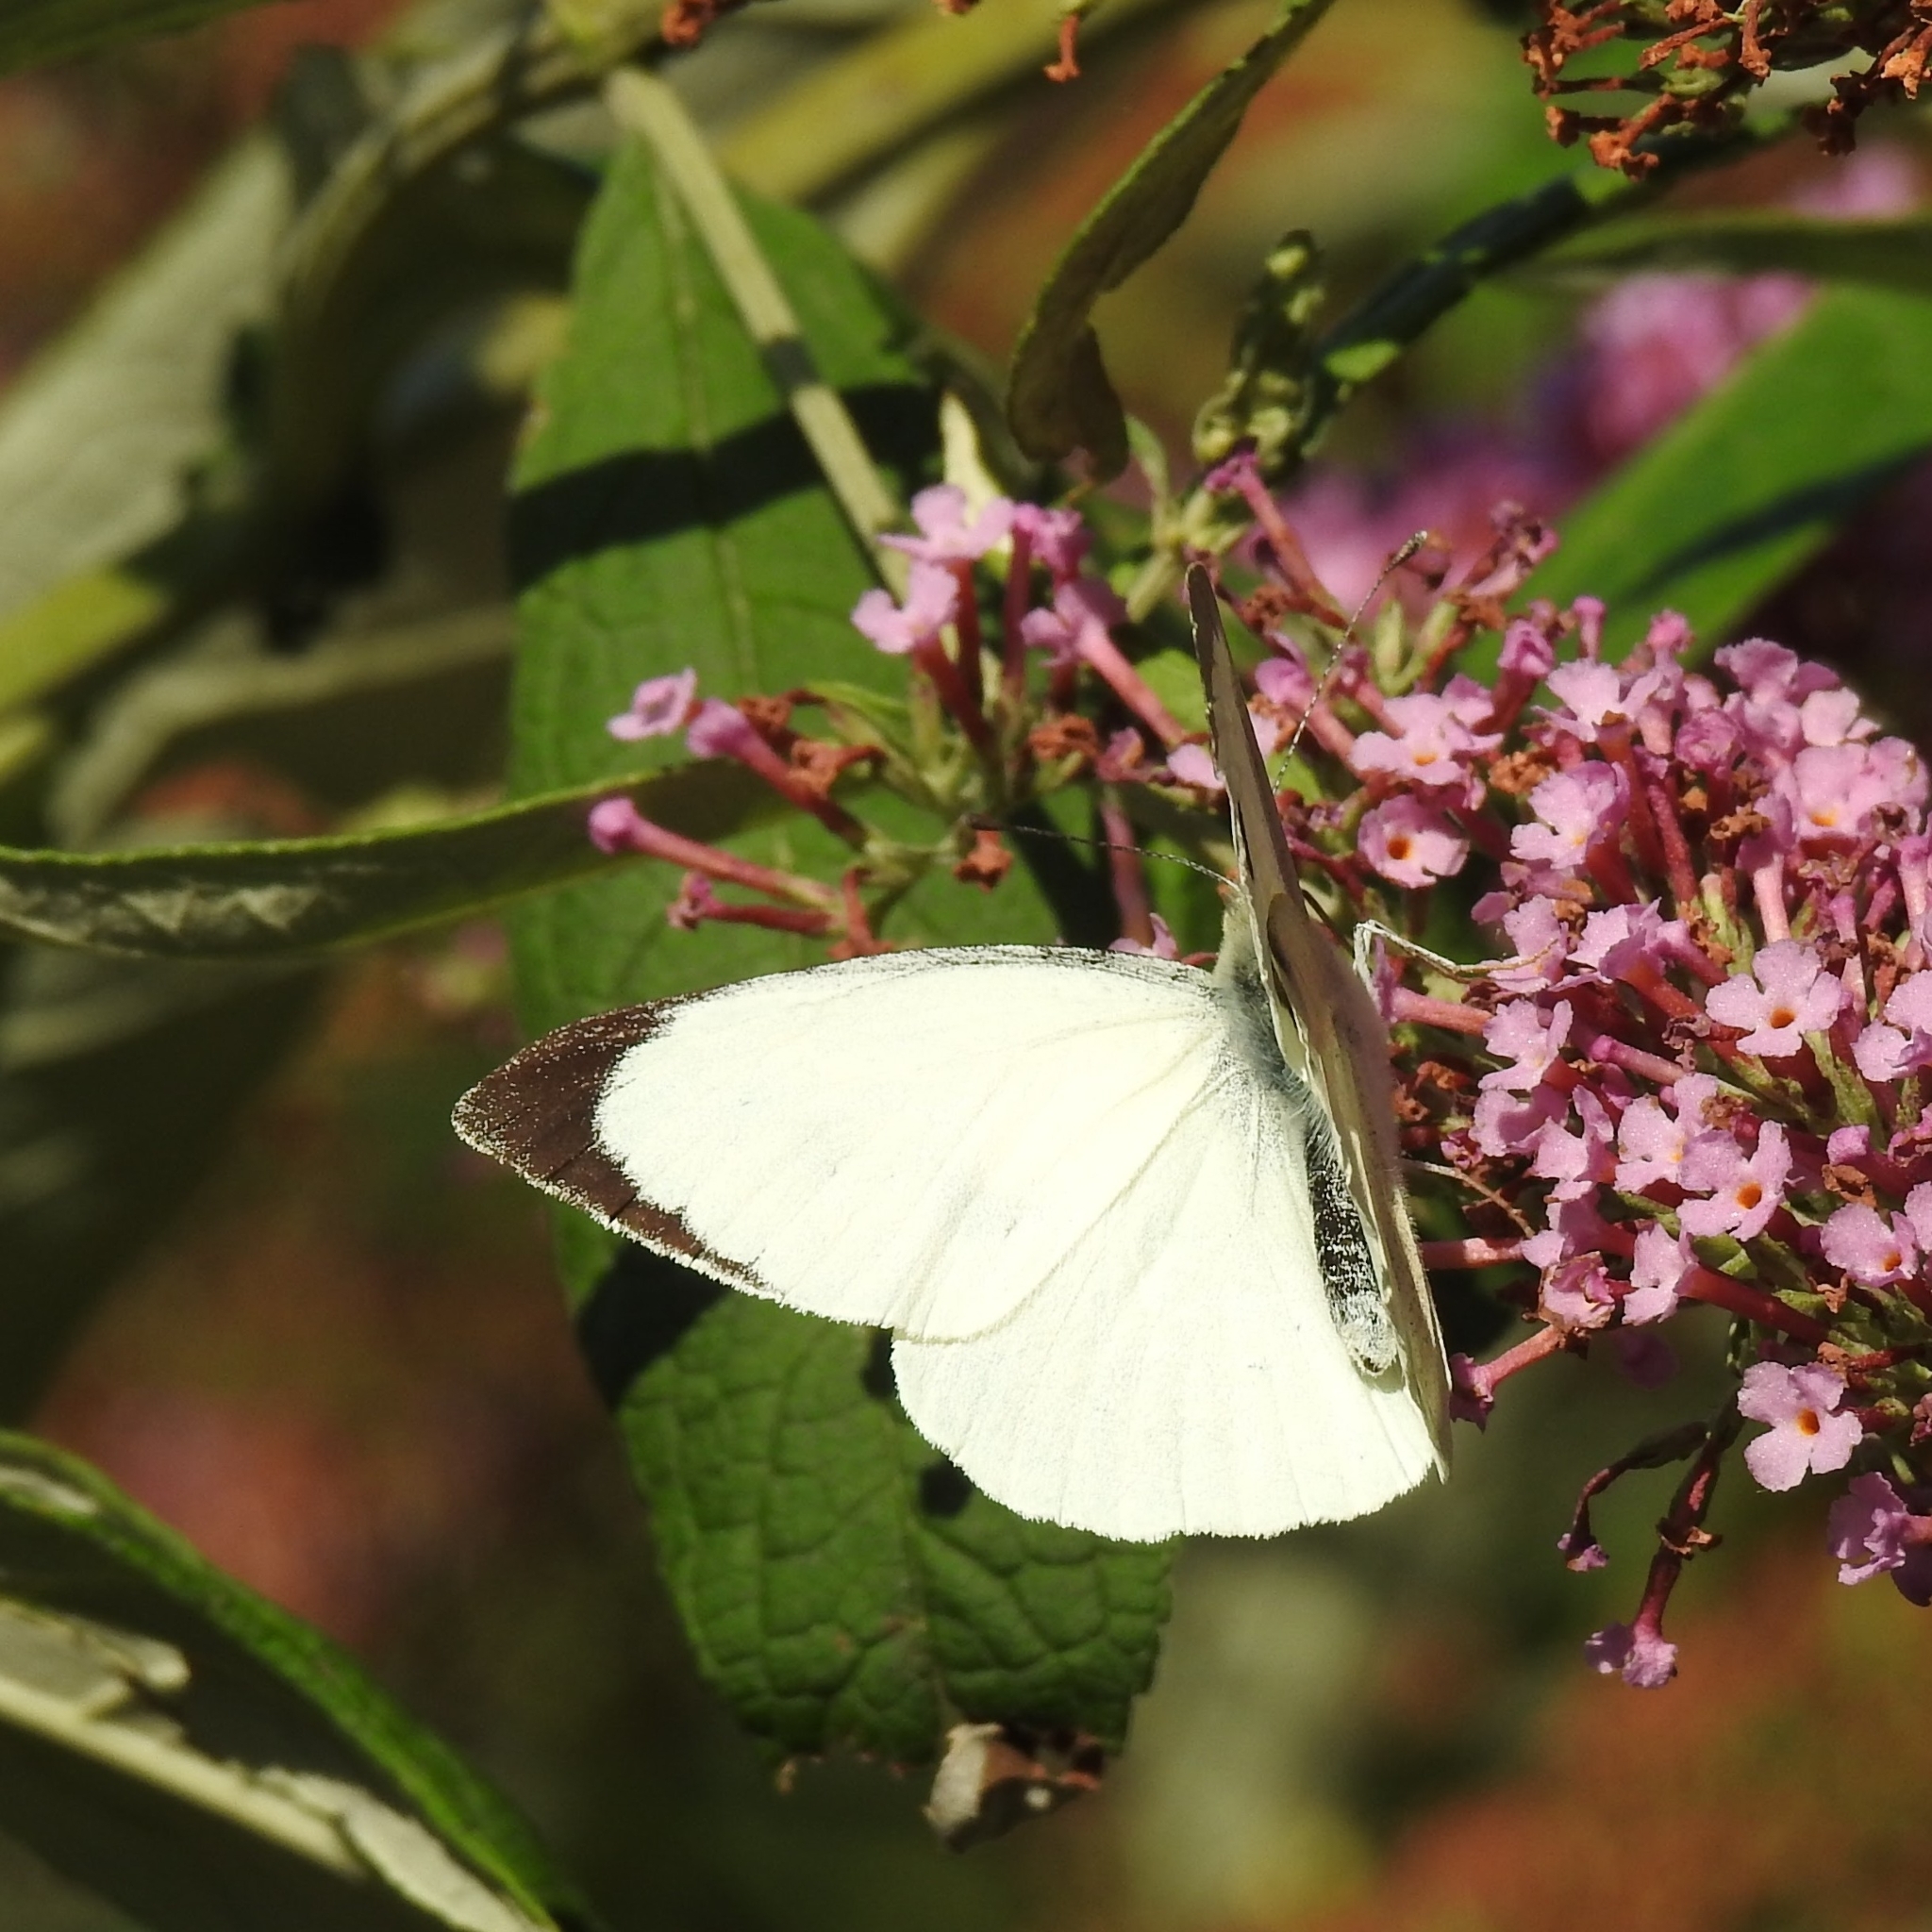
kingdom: Animalia
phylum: Arthropoda
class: Insecta
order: Lepidoptera
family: Pieridae
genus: Pieris
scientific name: Pieris brassicae
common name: Large white
